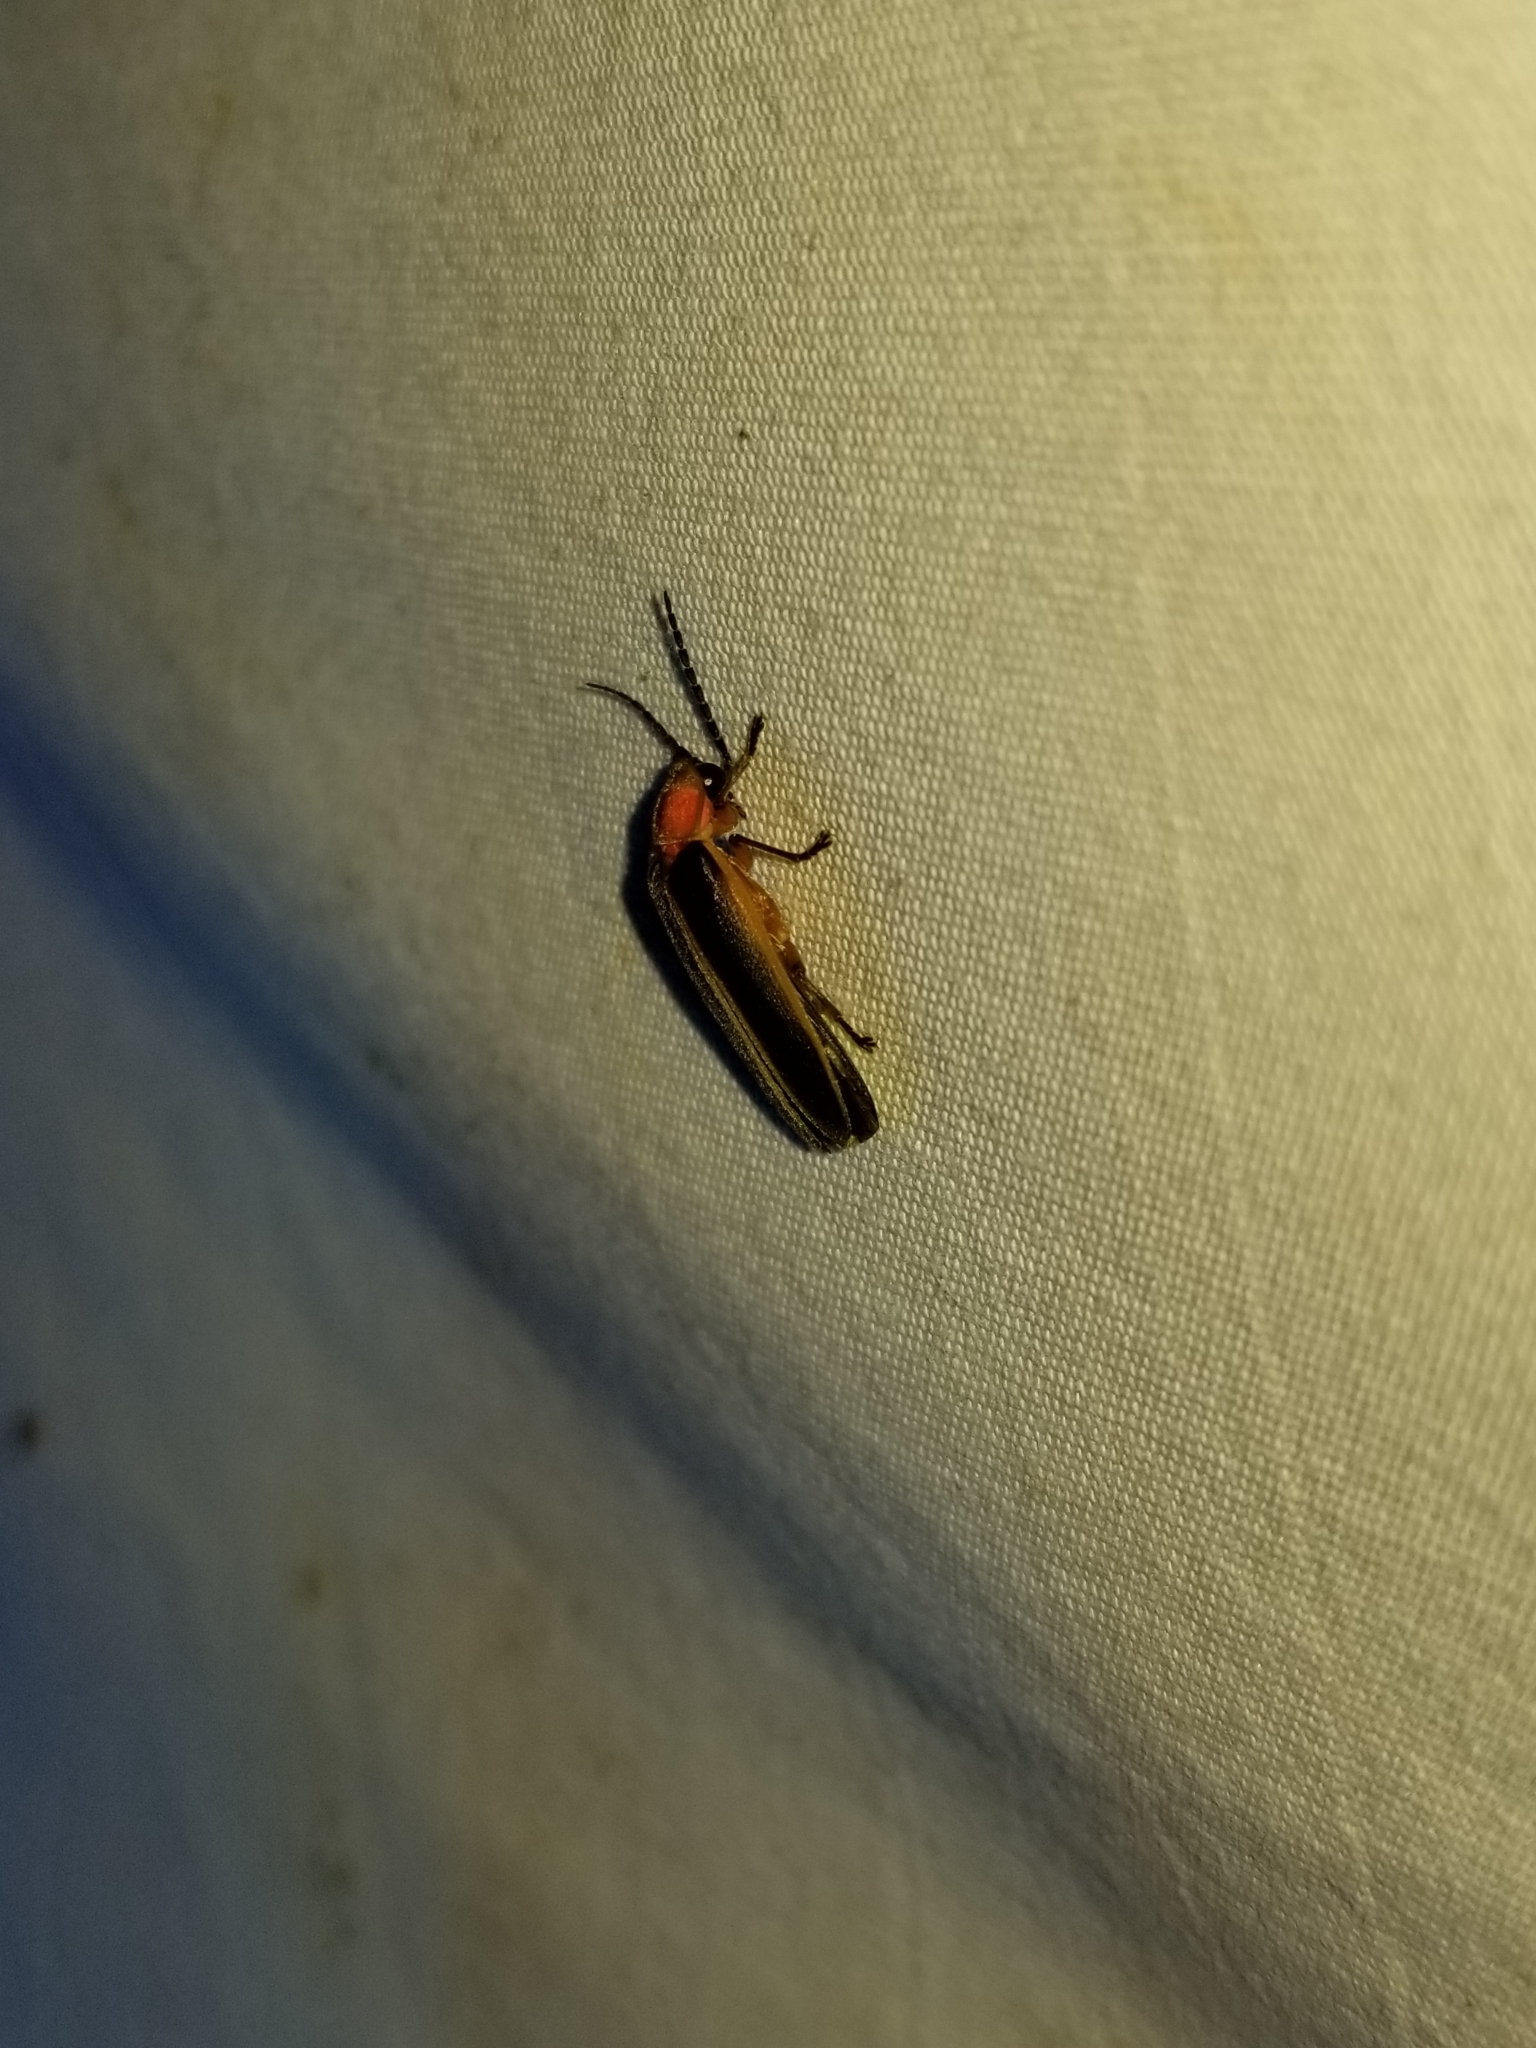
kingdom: Animalia
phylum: Arthropoda
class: Insecta
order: Coleoptera
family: Lampyridae
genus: Photinus
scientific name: Photinus pyralis
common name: Big dipper firefly
